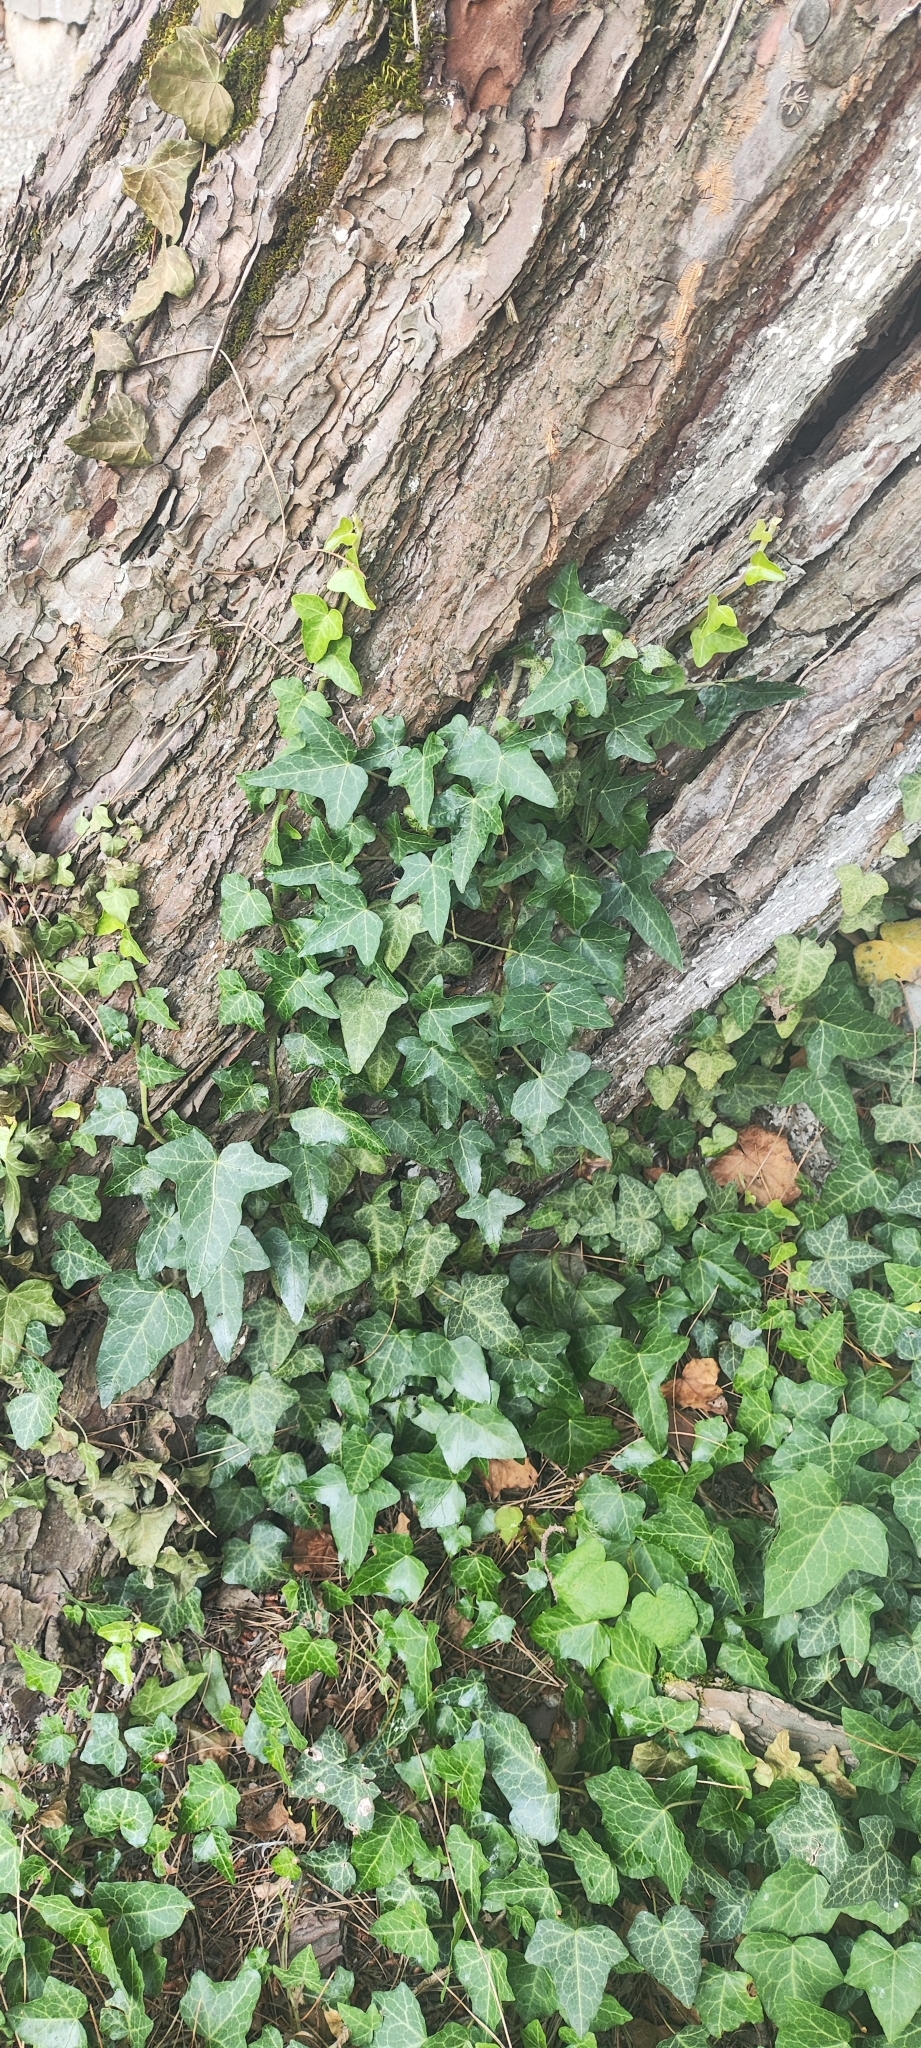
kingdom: Plantae
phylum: Tracheophyta
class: Magnoliopsida
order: Apiales
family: Araliaceae
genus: Hedera
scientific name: Hedera helix
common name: Ivy
